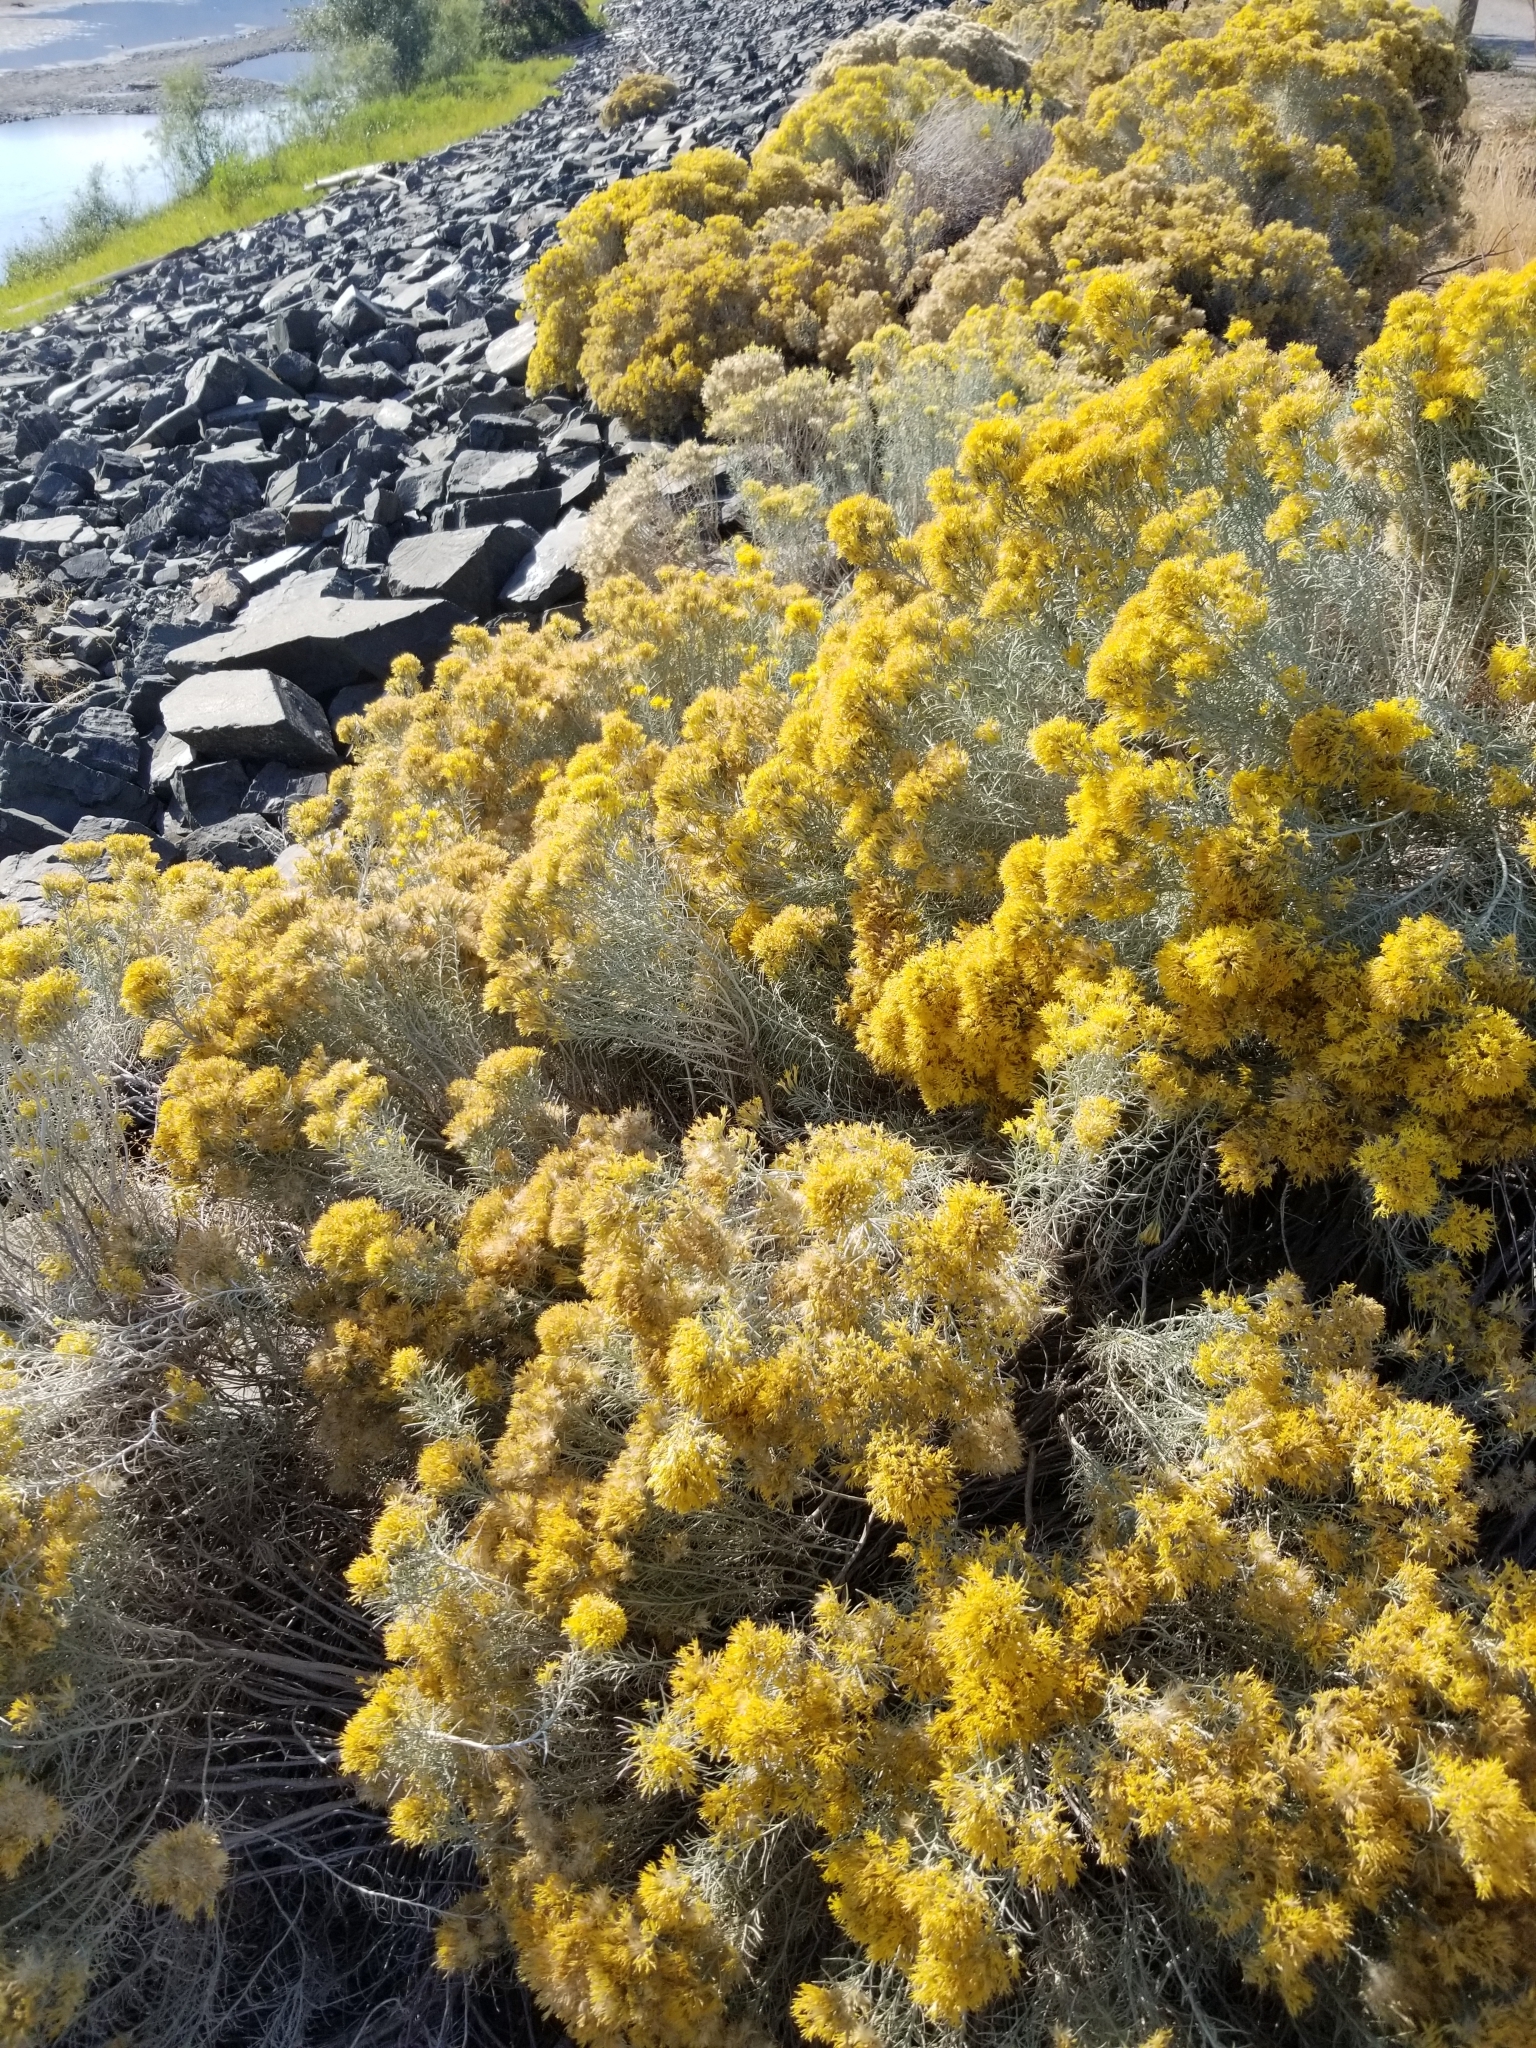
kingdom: Plantae
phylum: Tracheophyta
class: Magnoliopsida
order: Asterales
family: Asteraceae
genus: Ericameria
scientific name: Ericameria nauseosa
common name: Rubber rabbitbrush
